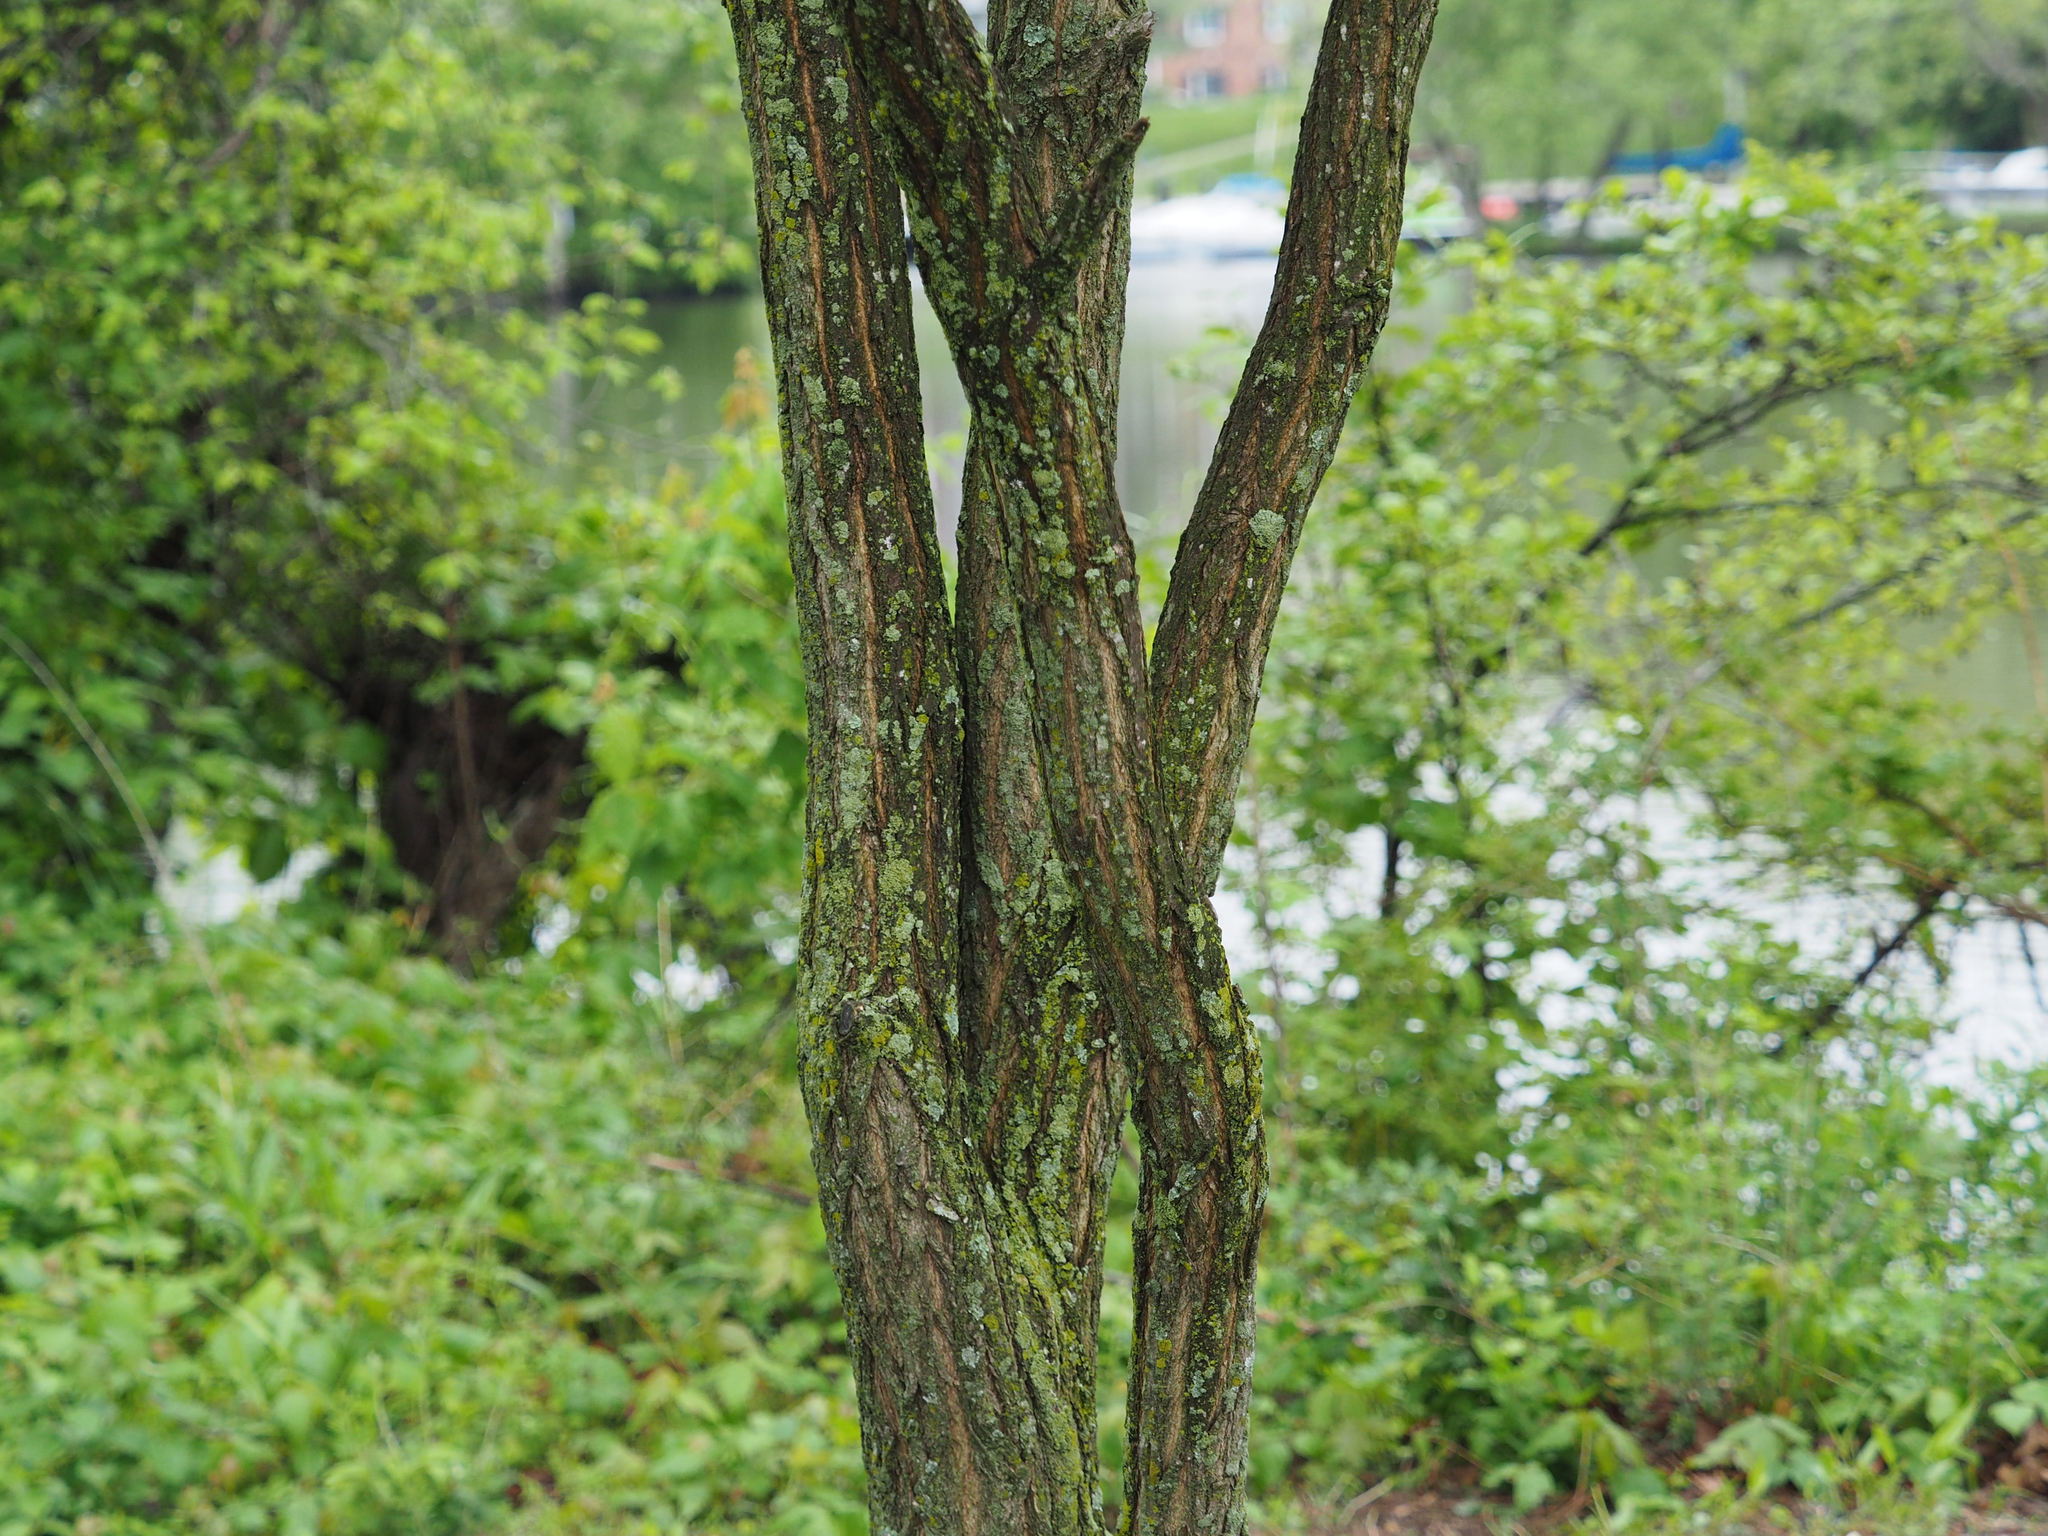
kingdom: Plantae
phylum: Tracheophyta
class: Magnoliopsida
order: Fabales
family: Fabaceae
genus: Robinia
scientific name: Robinia pseudoacacia
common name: Black locust
